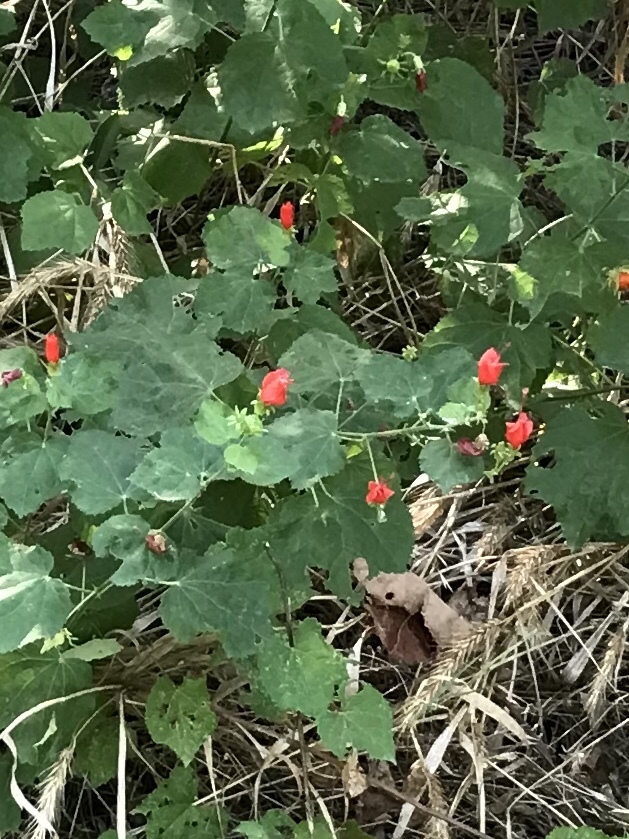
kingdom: Plantae
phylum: Tracheophyta
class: Magnoliopsida
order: Malvales
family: Malvaceae
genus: Malvaviscus
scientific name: Malvaviscus arboreus
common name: Wax mallow
